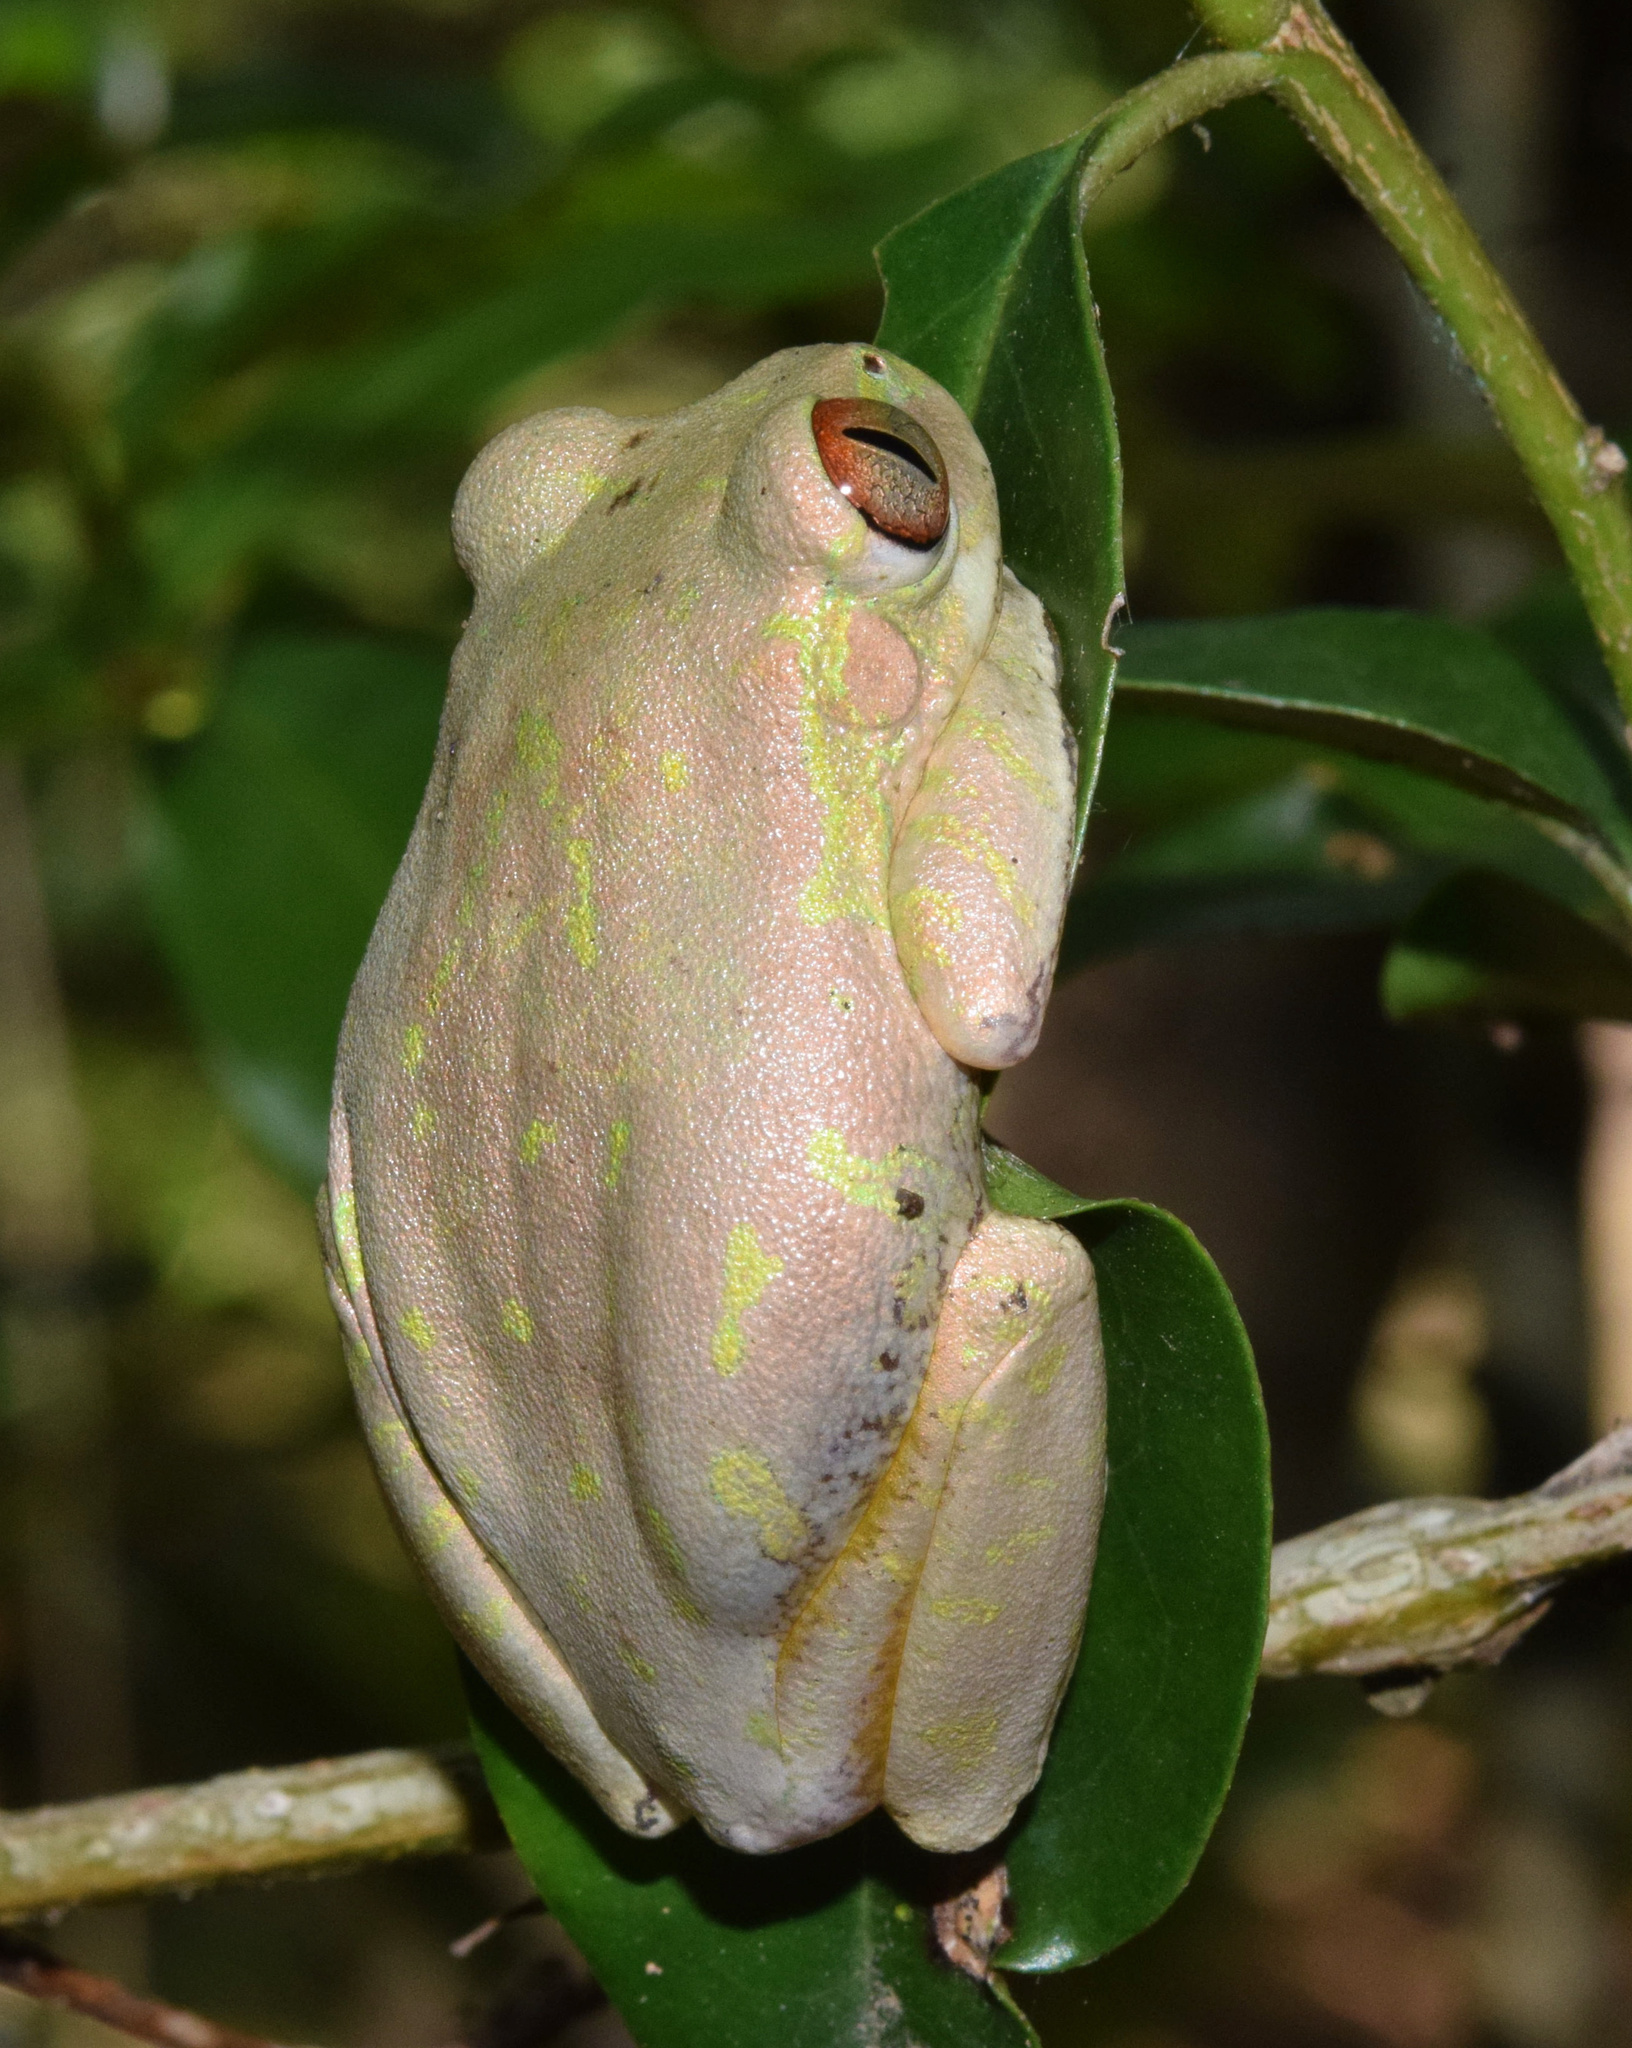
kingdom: Animalia
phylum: Chordata
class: Amphibia
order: Anura
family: Arthroleptidae
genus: Leptopelis
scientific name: Leptopelis natalensis
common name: Natal tree frog
